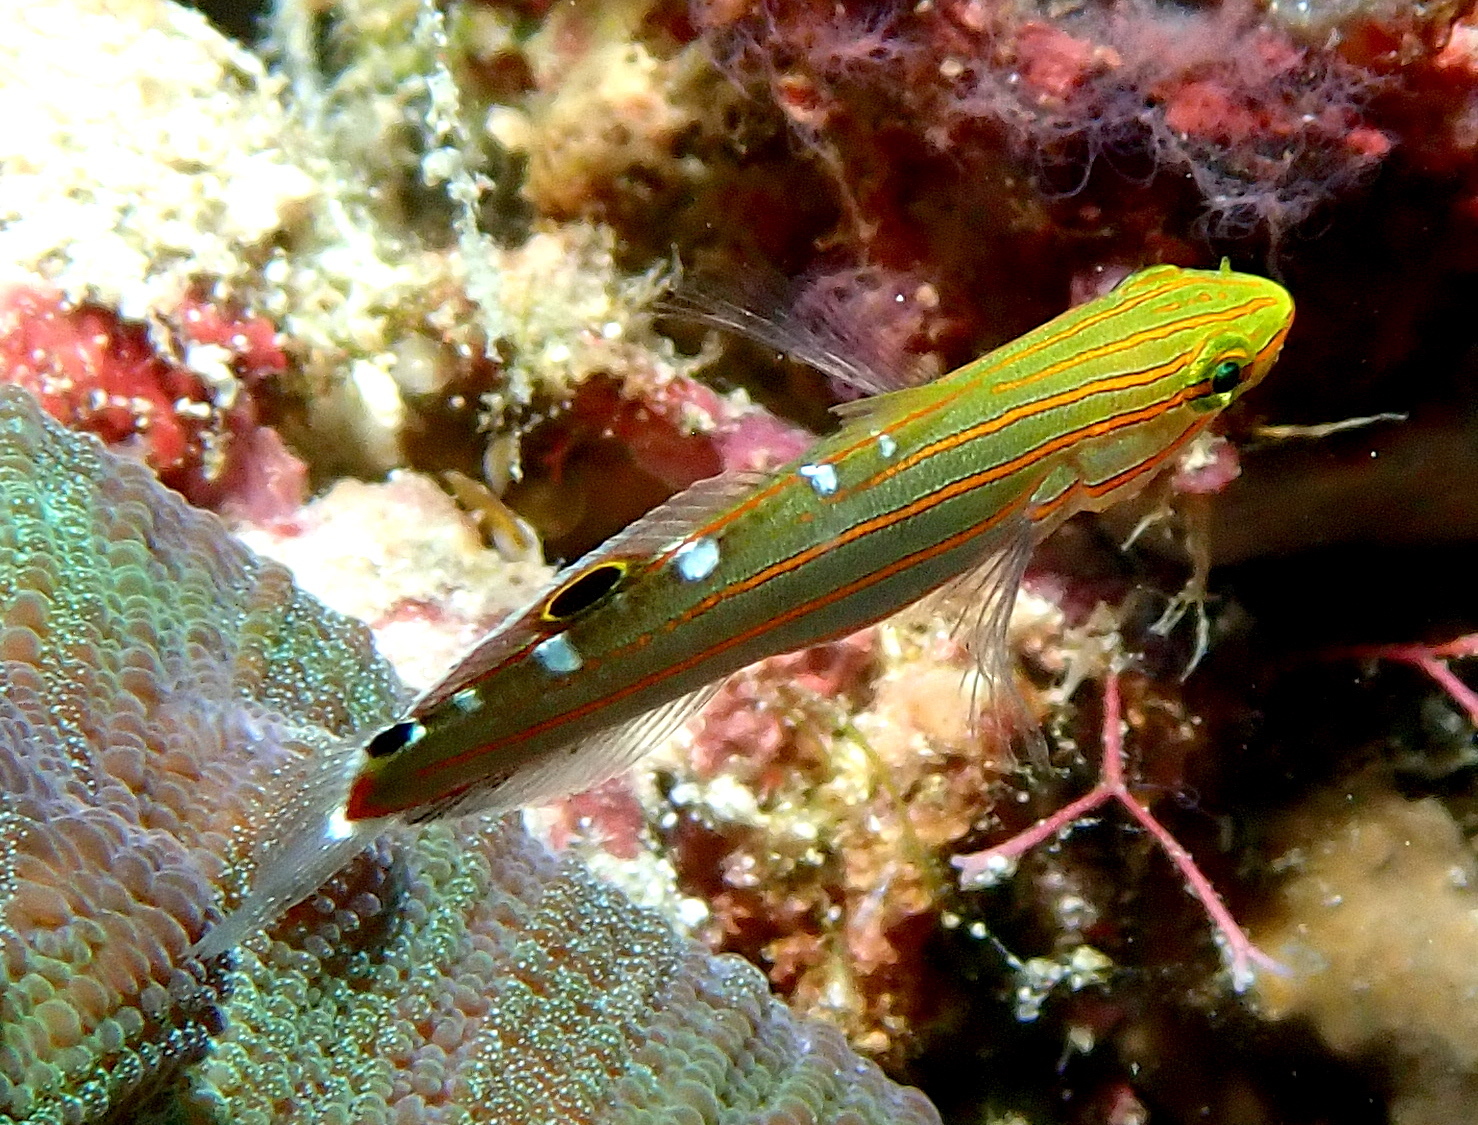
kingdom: Animalia
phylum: Chordata
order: Perciformes
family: Gobiidae
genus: Koumansetta
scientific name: Koumansetta rainfordi
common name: Old glory
